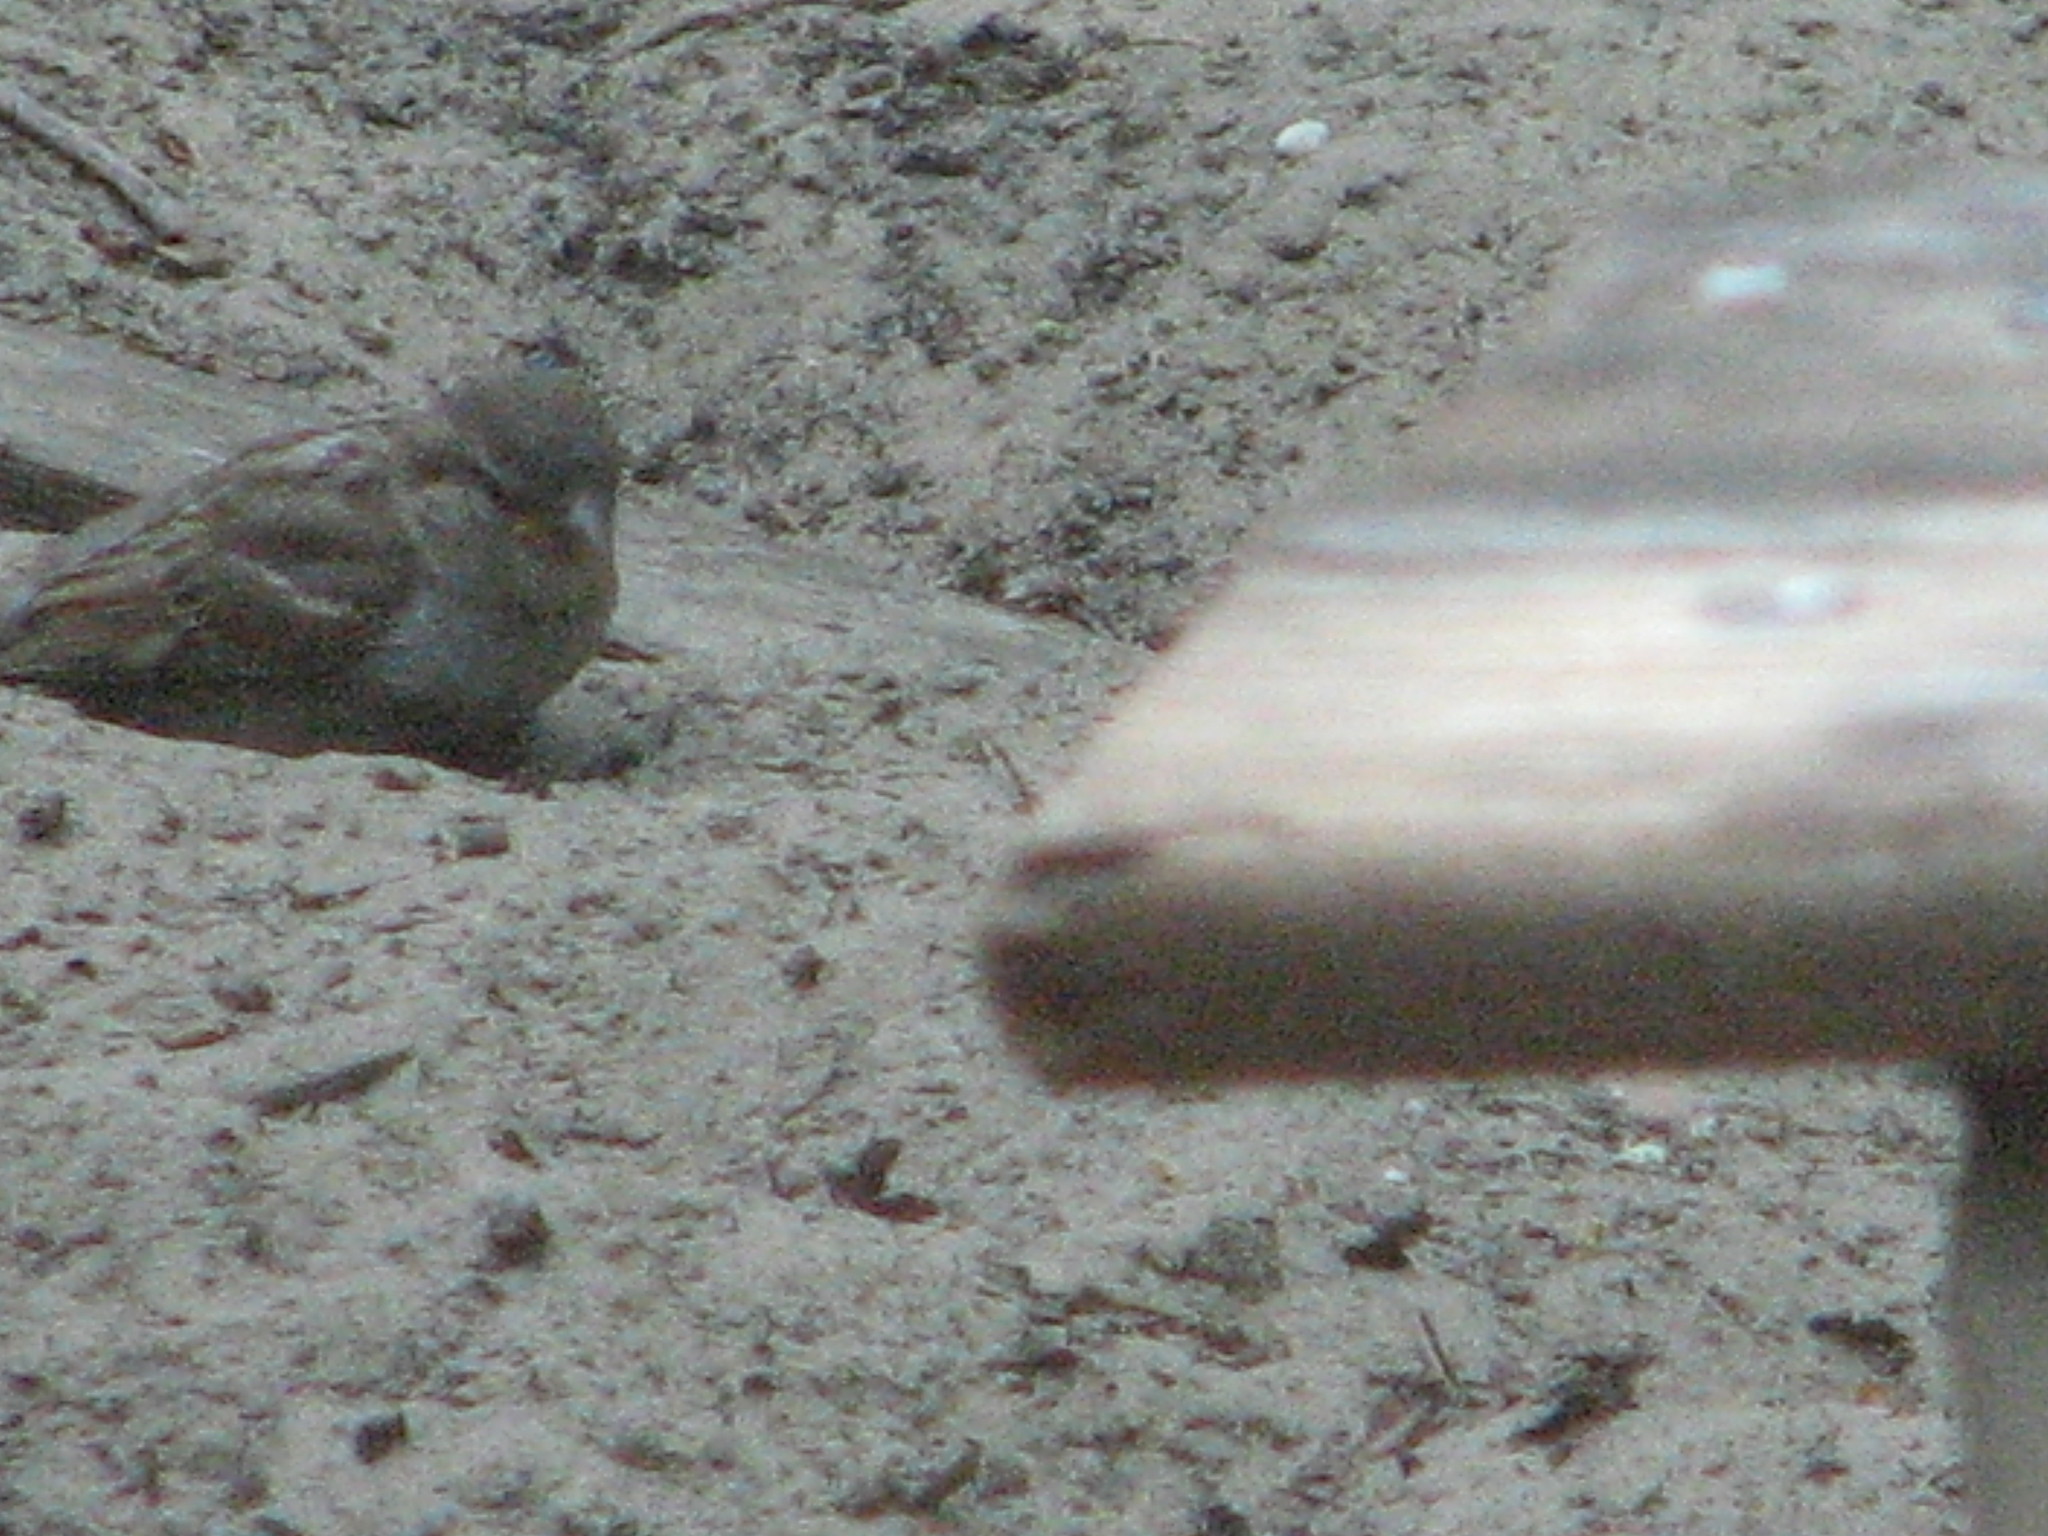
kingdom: Animalia
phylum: Chordata
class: Aves
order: Passeriformes
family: Passeridae
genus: Passer
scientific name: Passer domesticus
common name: House sparrow
